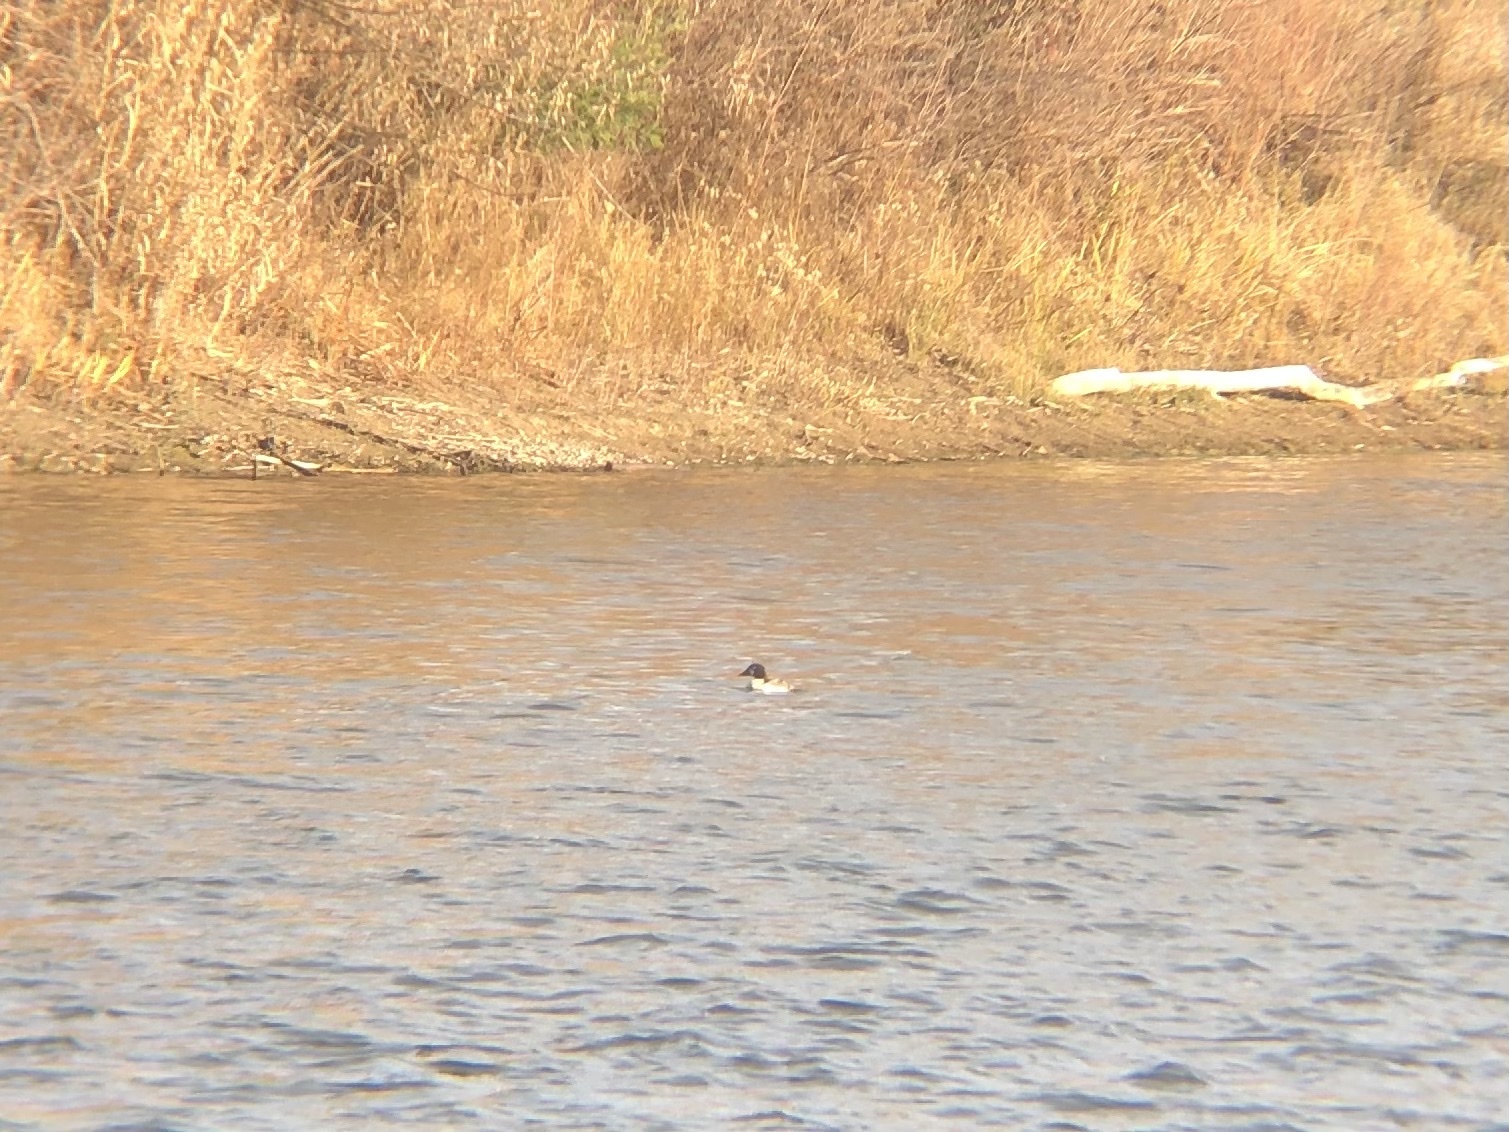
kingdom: Animalia
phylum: Chordata
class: Aves
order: Anseriformes
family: Anatidae
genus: Bucephala
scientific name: Bucephala clangula
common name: Common goldeneye
